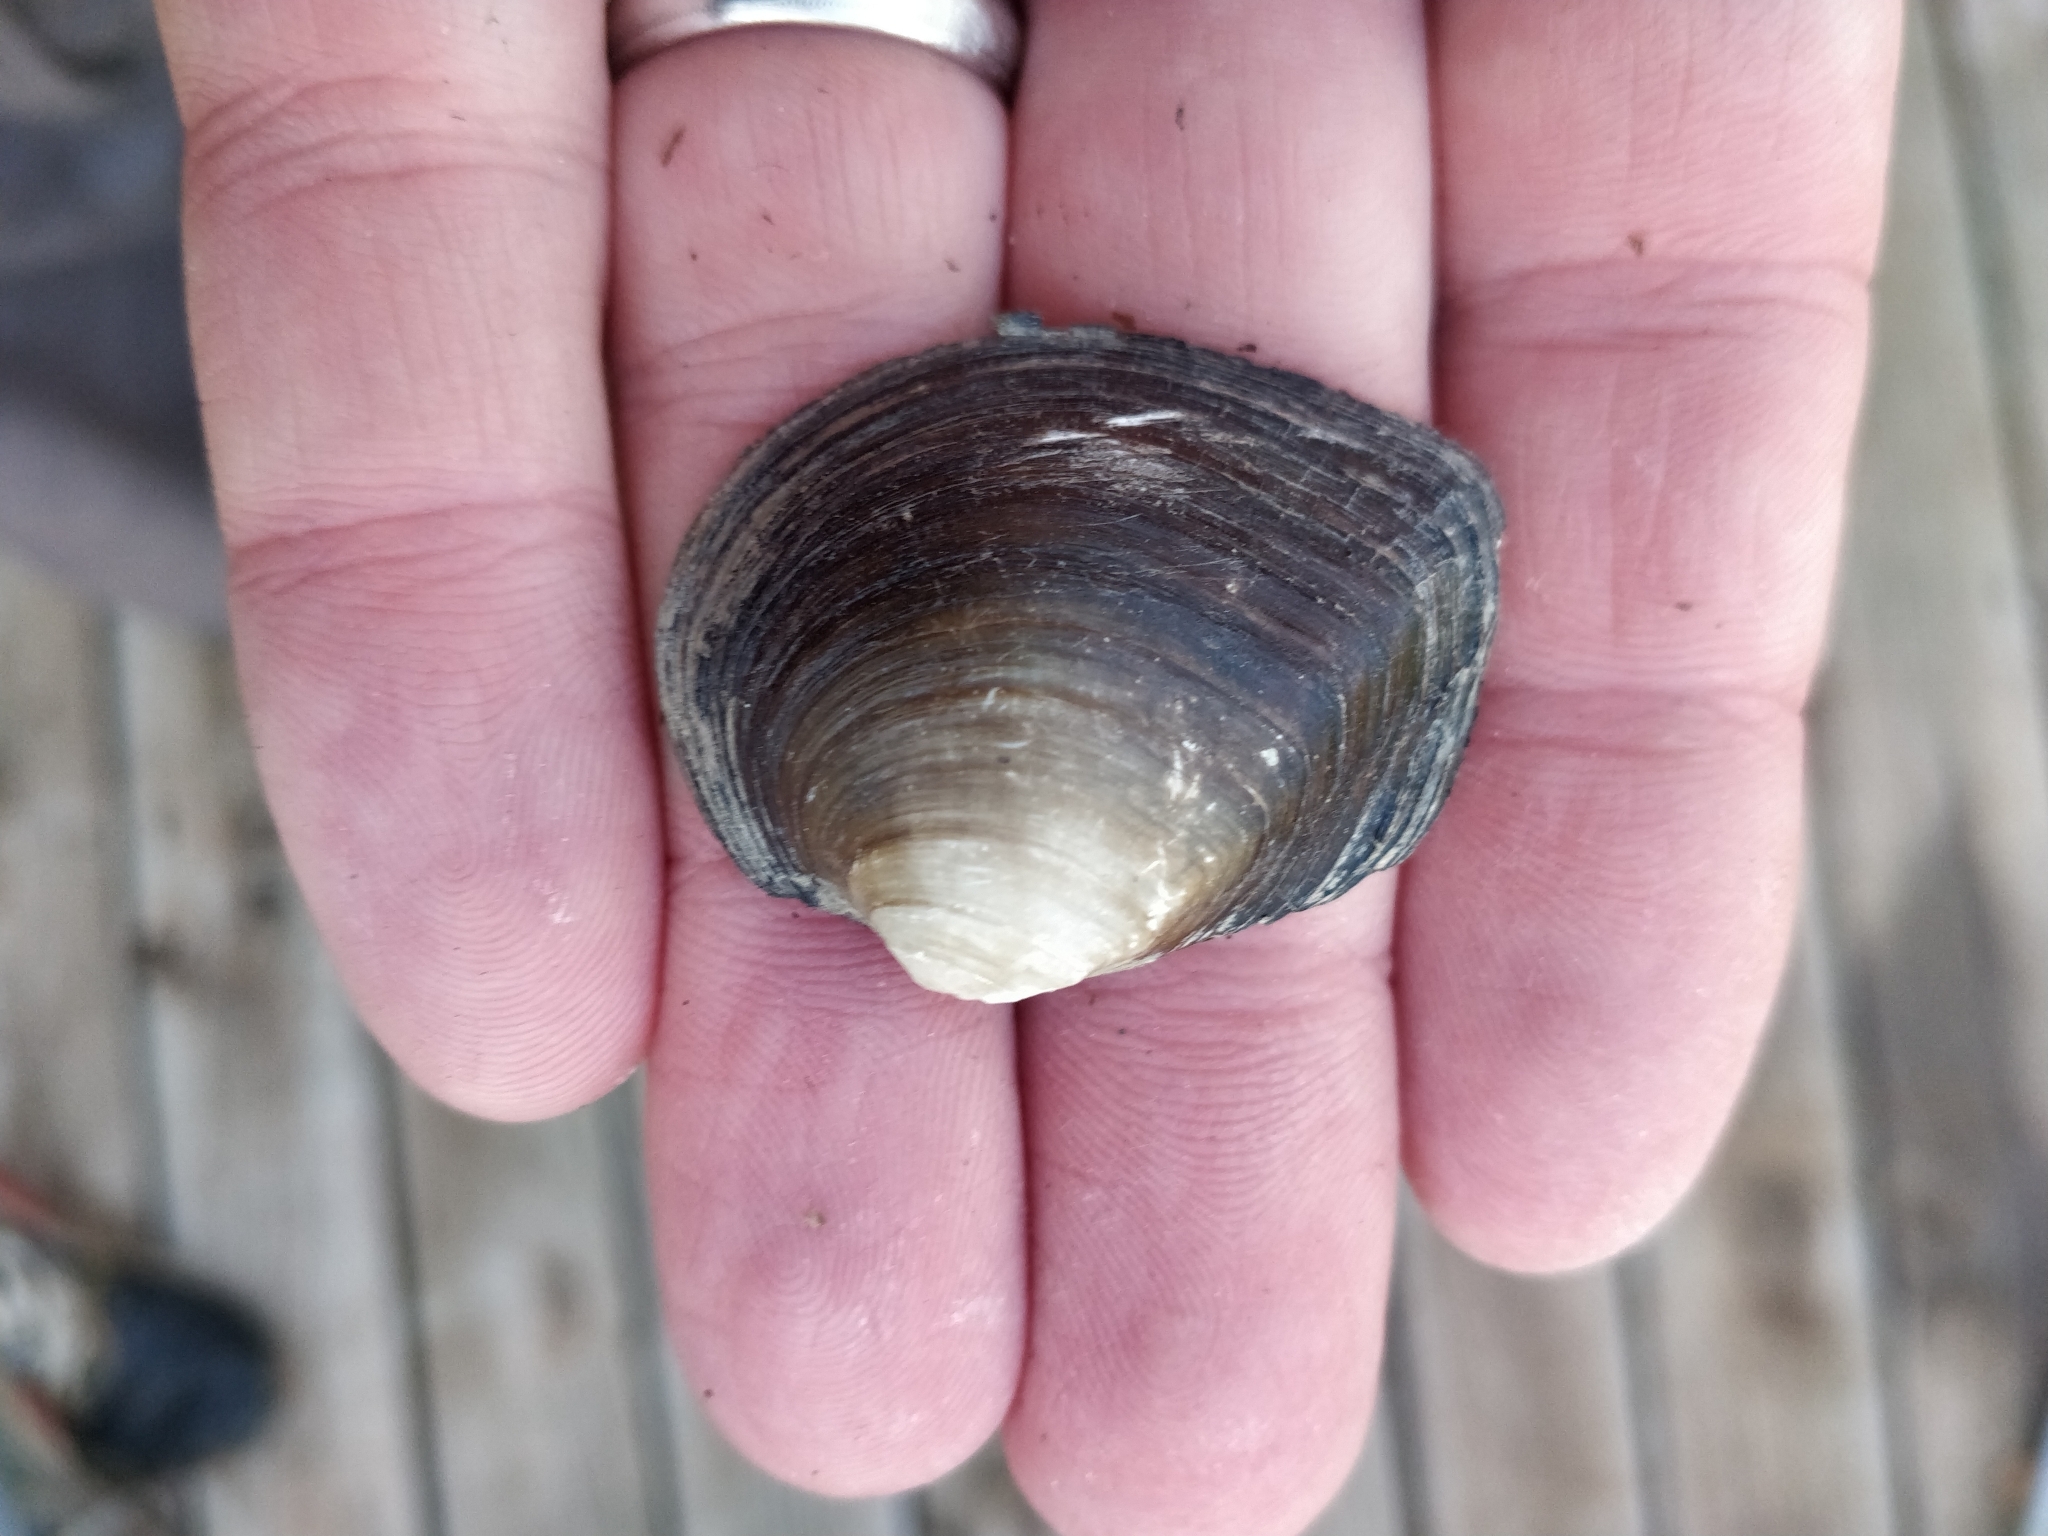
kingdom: Animalia
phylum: Mollusca
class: Bivalvia
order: Unionida
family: Unionidae
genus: Fusconaia
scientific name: Fusconaia flava
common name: Wabash pigtoe
